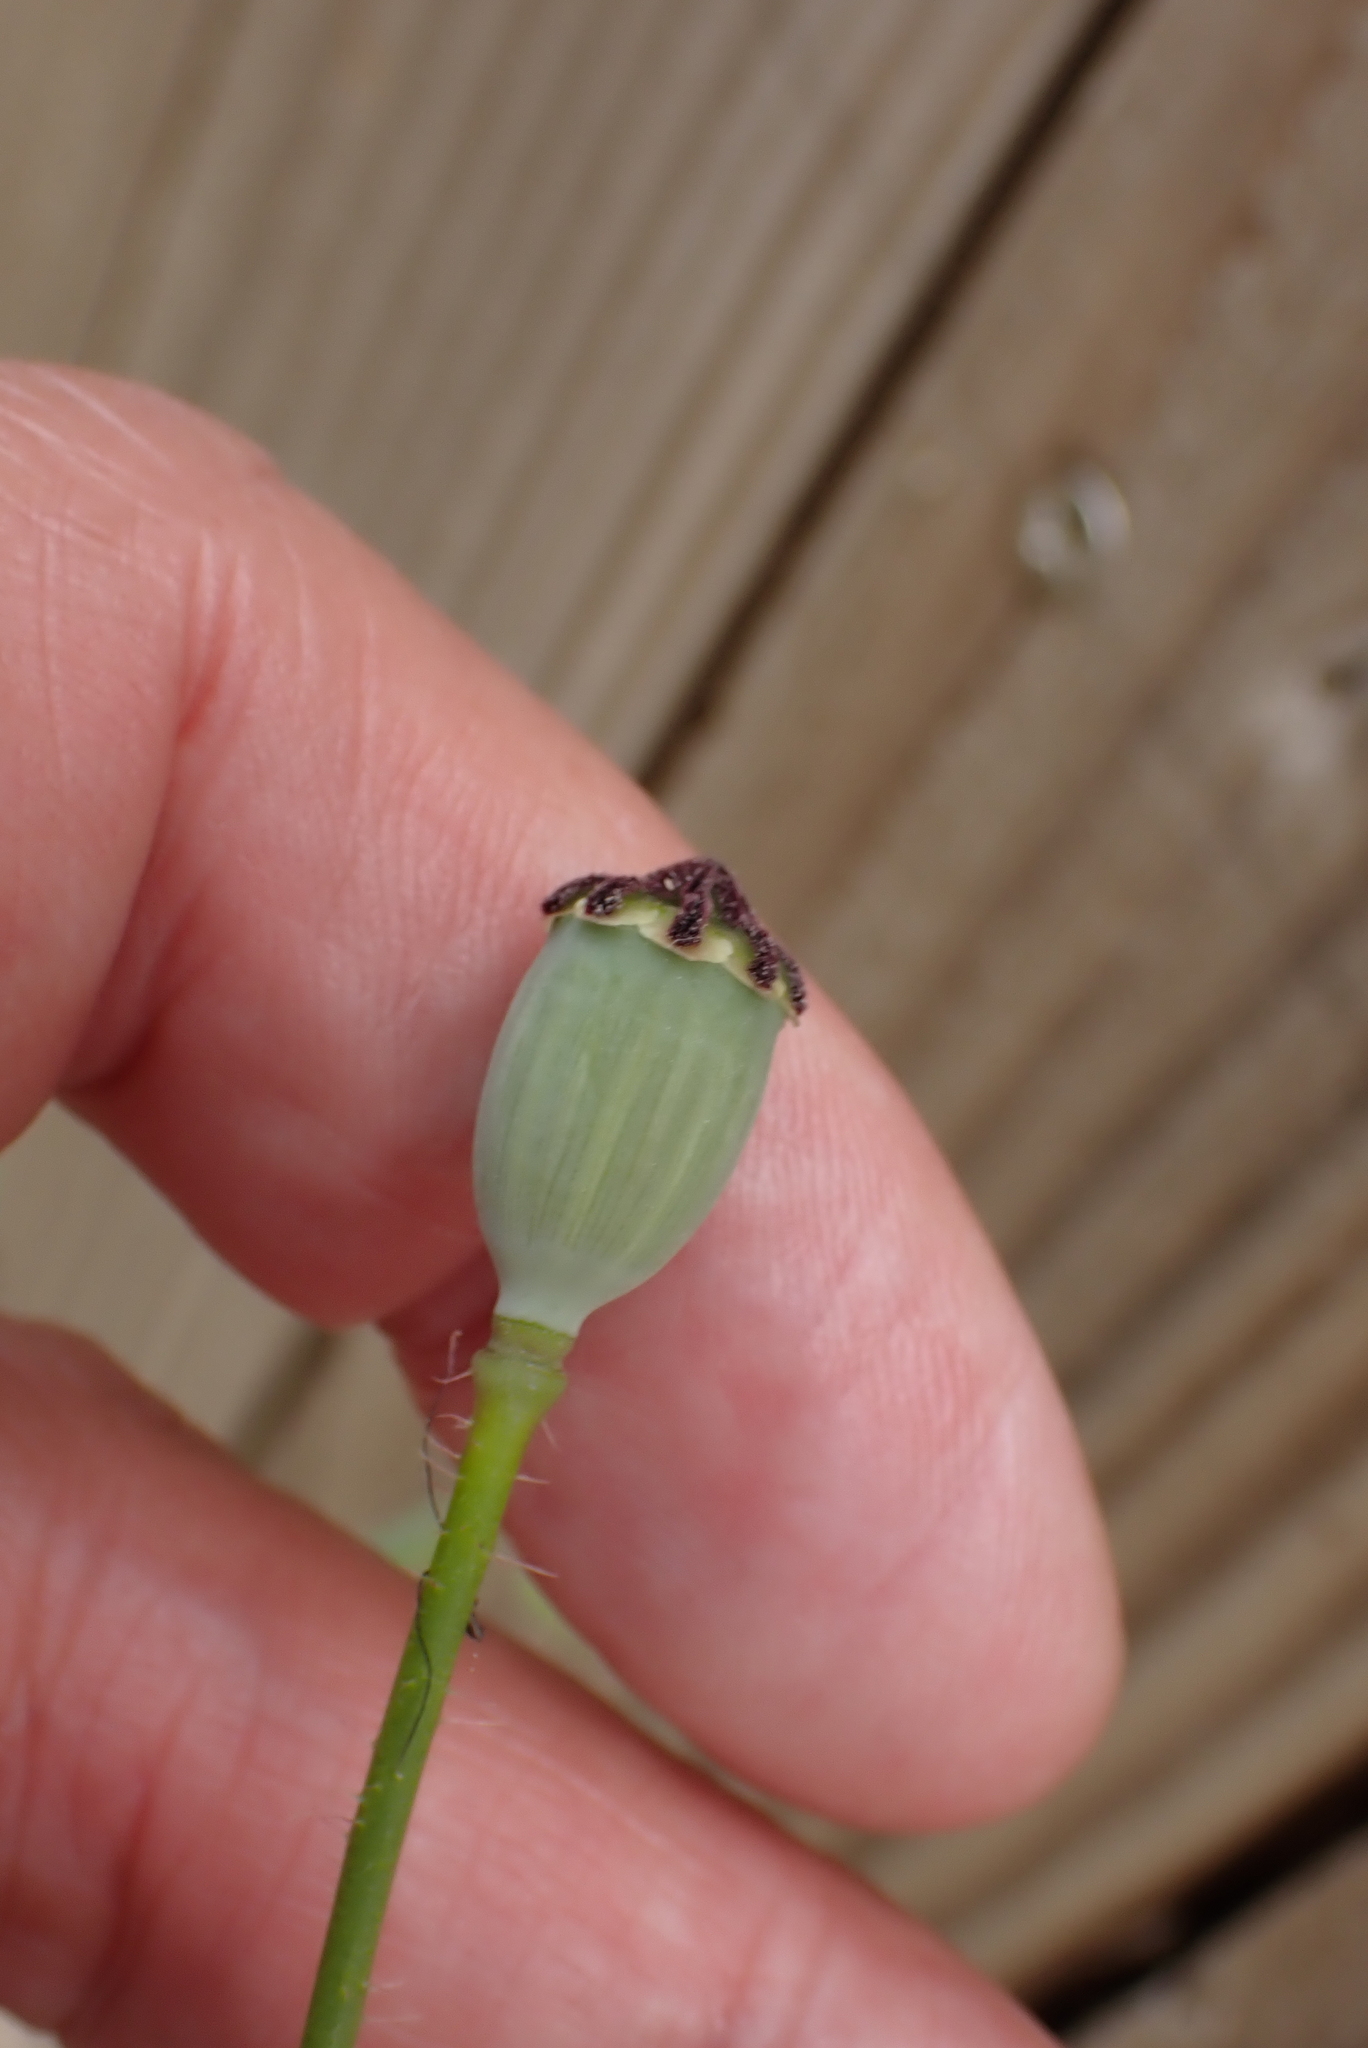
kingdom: Plantae
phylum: Tracheophyta
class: Magnoliopsida
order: Ranunculales
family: Papaveraceae
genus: Papaver
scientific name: Papaver rhoeas
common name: Corn poppy
